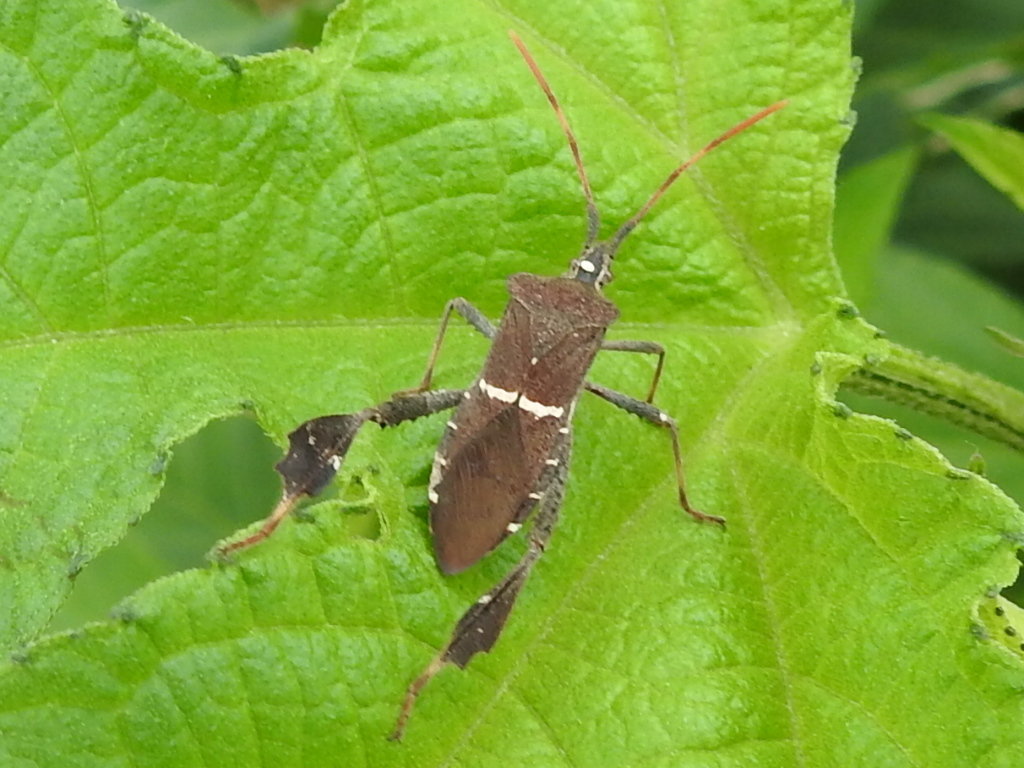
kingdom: Animalia
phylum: Arthropoda
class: Insecta
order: Hemiptera
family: Coreidae
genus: Leptoglossus
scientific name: Leptoglossus phyllopus
